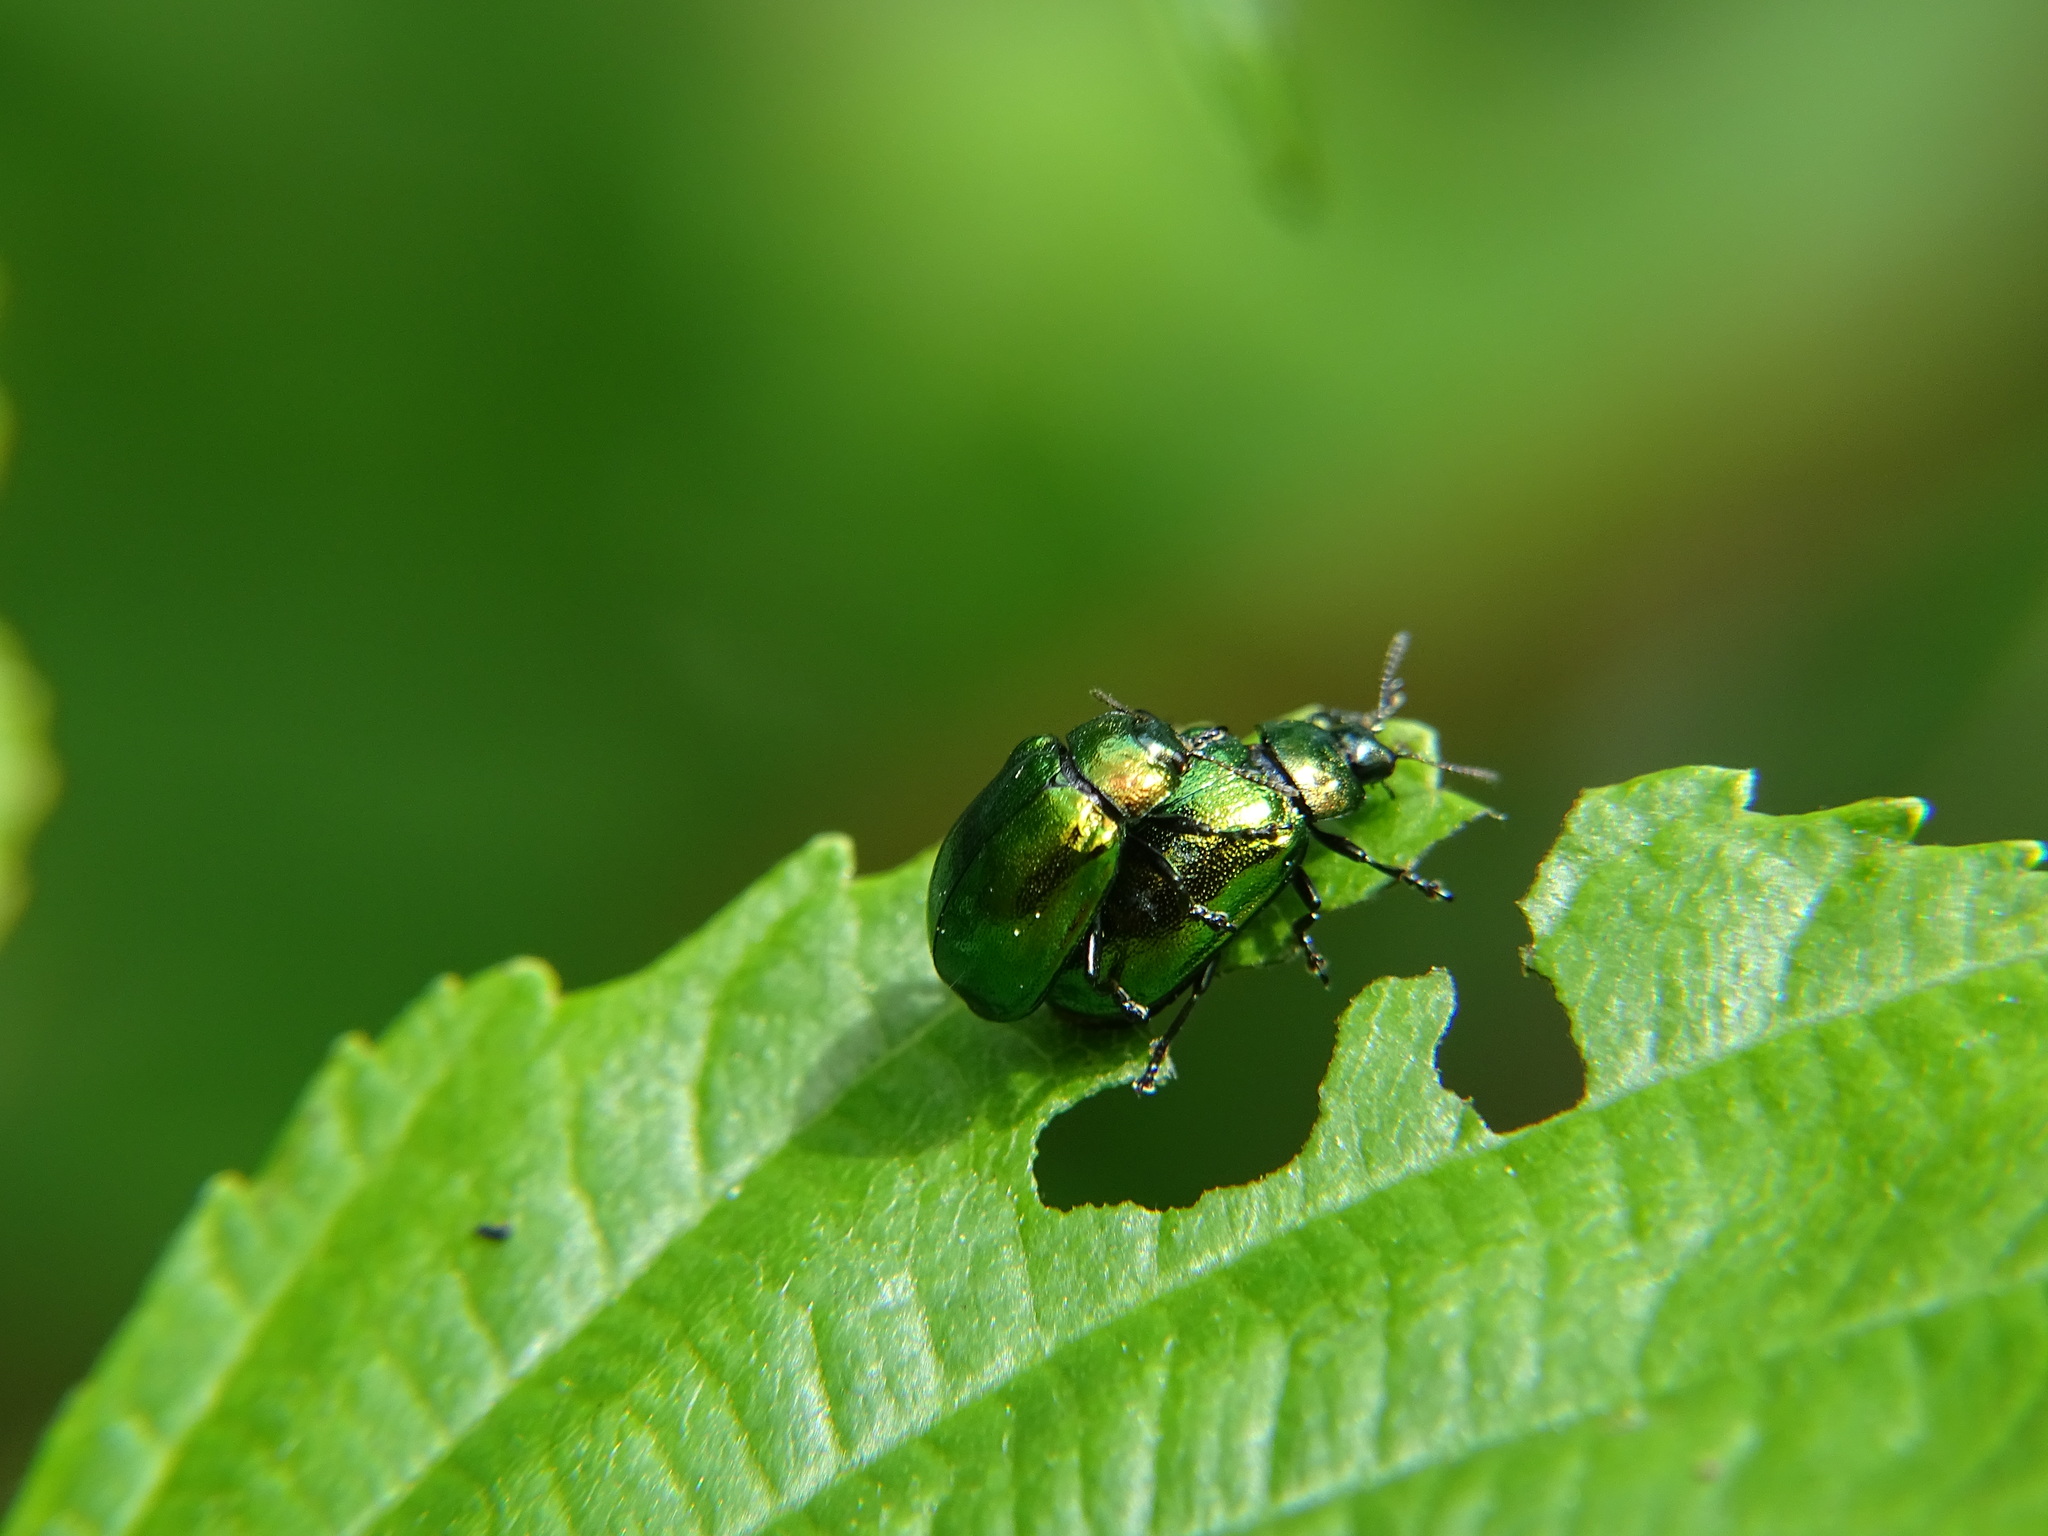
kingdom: Animalia
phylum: Arthropoda
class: Insecta
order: Coleoptera
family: Chrysomelidae
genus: Plagiosterna
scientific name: Plagiosterna aenea
